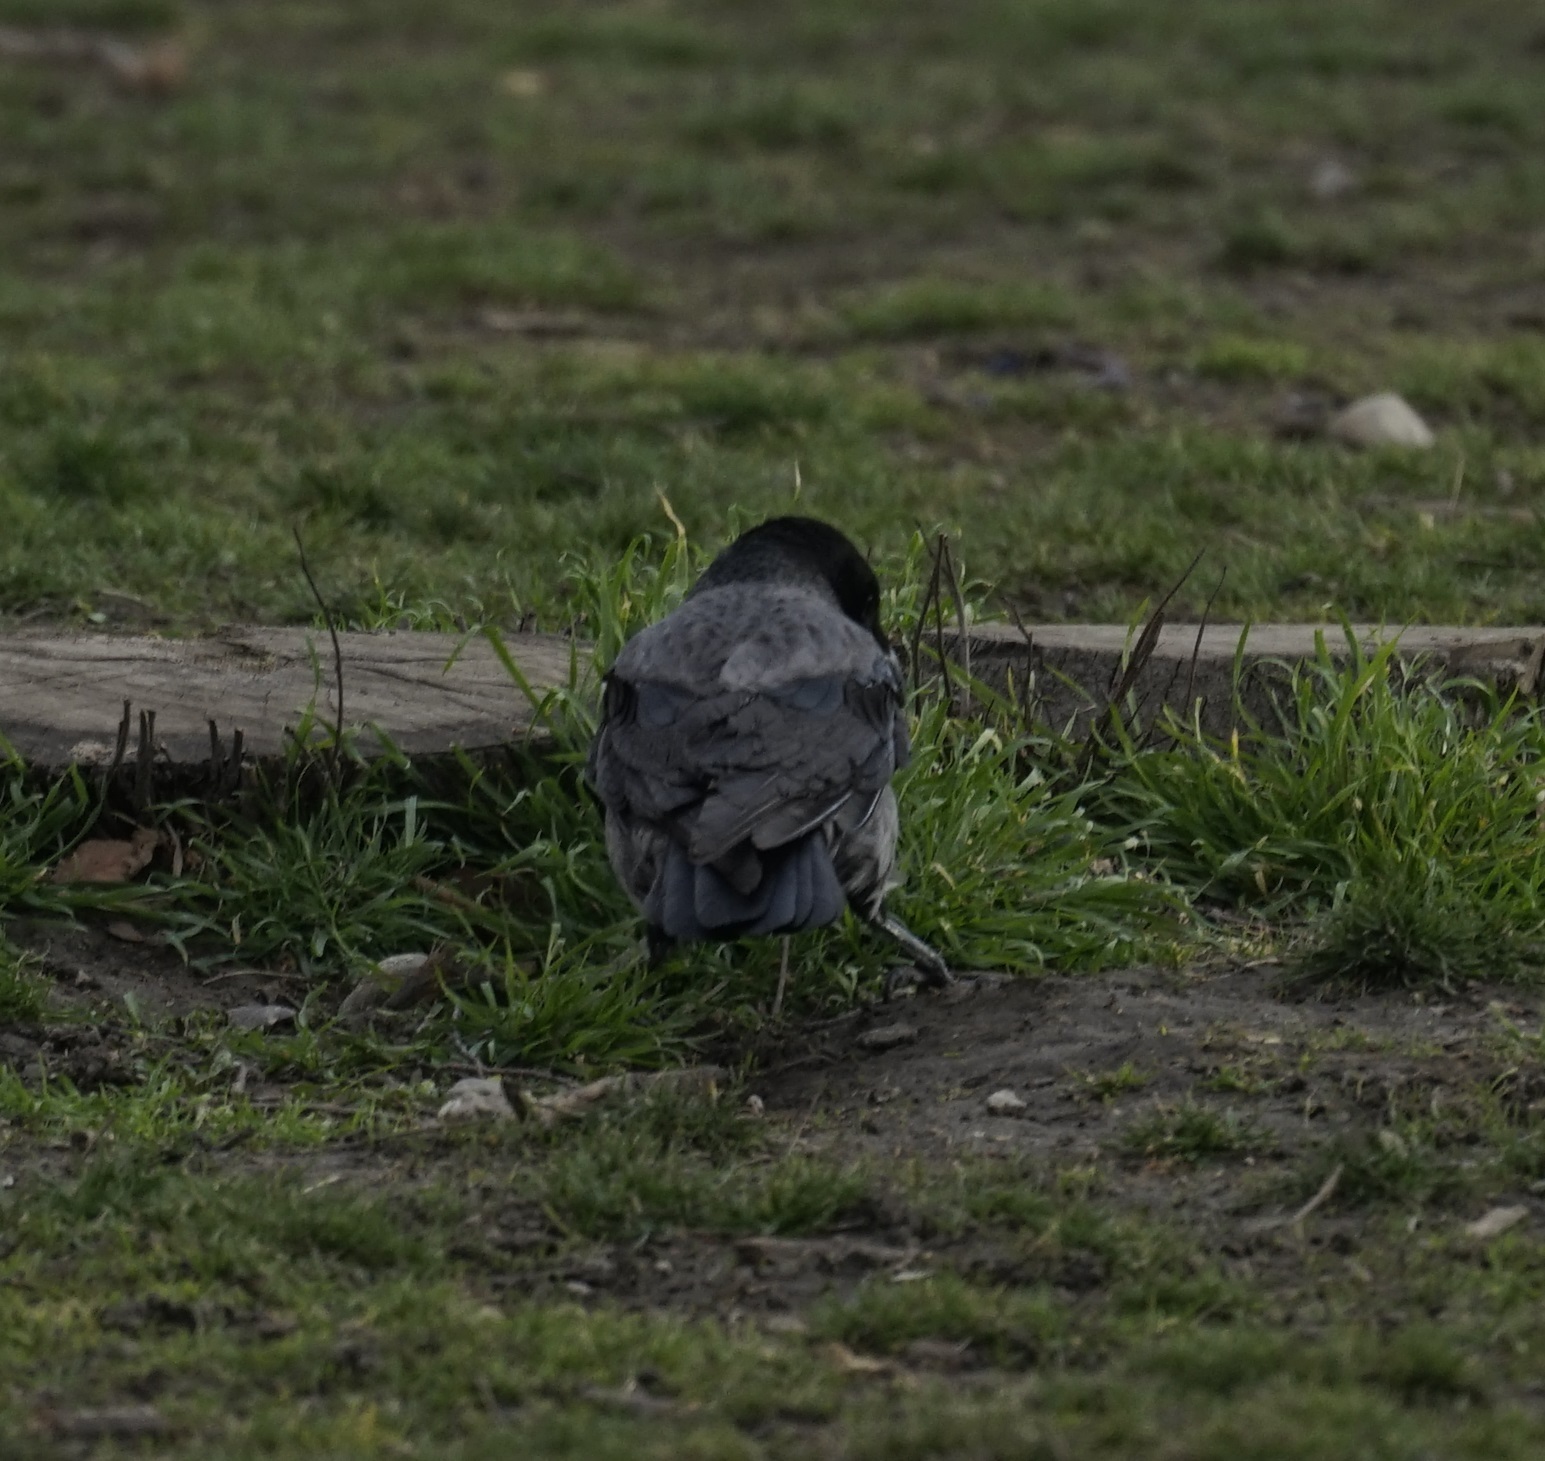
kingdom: Animalia
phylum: Chordata
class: Aves
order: Passeriformes
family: Corvidae
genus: Corvus
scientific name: Corvus
